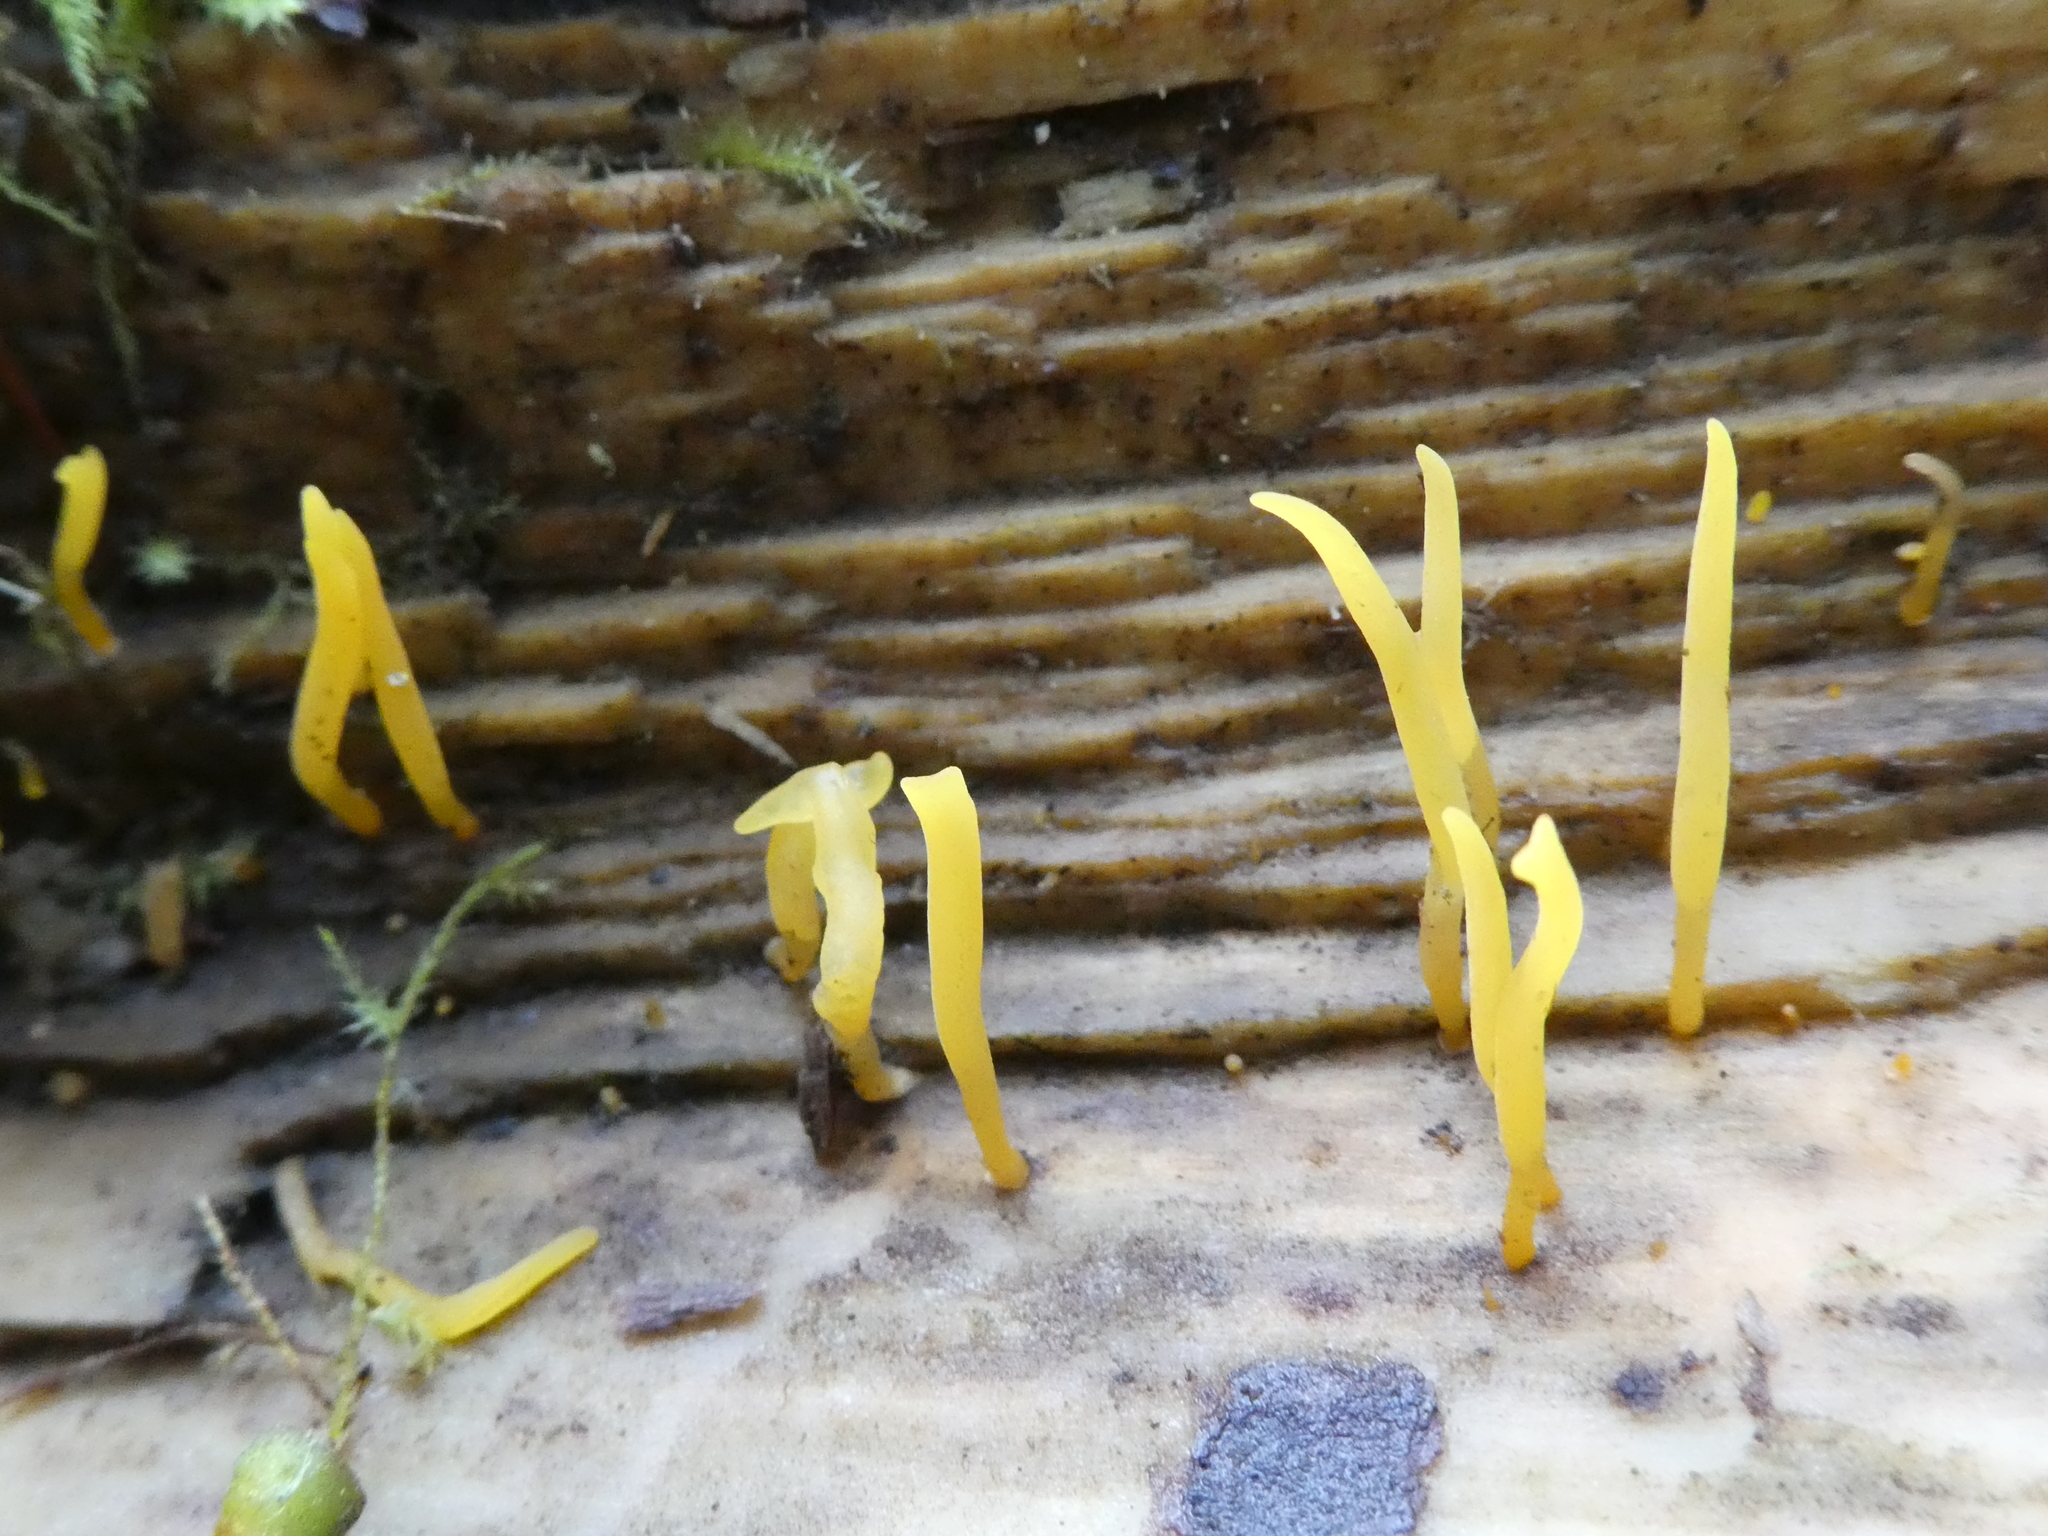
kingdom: Fungi
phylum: Basidiomycota
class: Dacrymycetes
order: Dacrymycetales
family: Dacrymycetaceae
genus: Calocera
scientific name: Calocera cornea
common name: Small stagshorn
